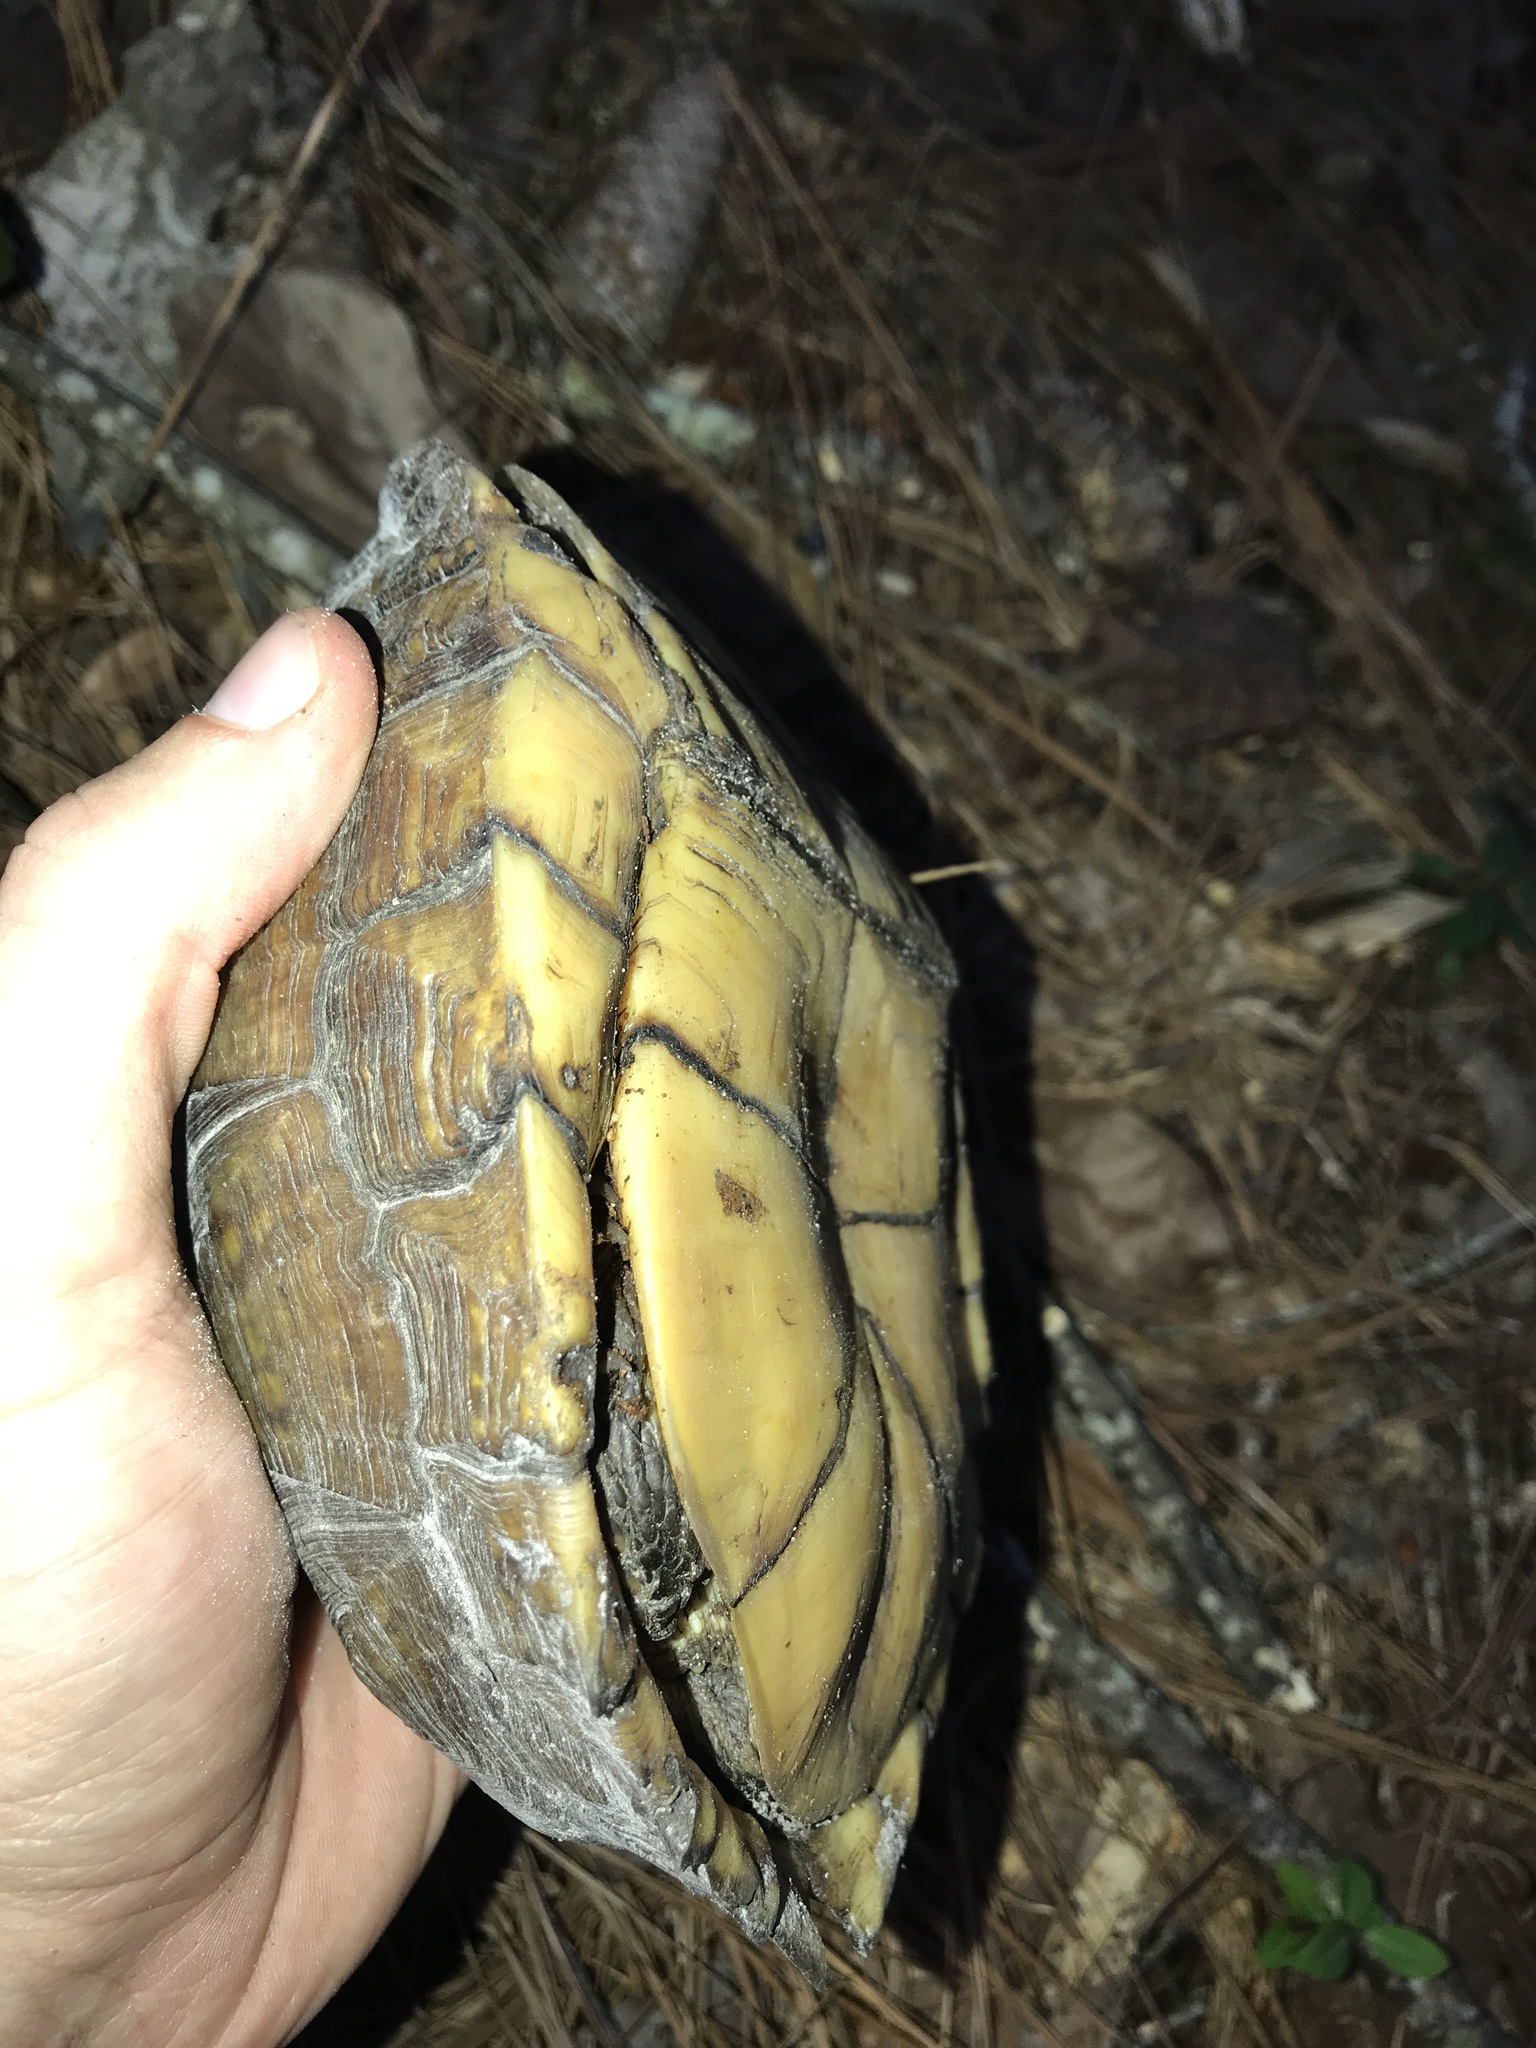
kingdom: Animalia
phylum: Chordata
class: Testudines
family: Emydidae
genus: Terrapene
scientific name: Terrapene carolina
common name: Common box turtle
